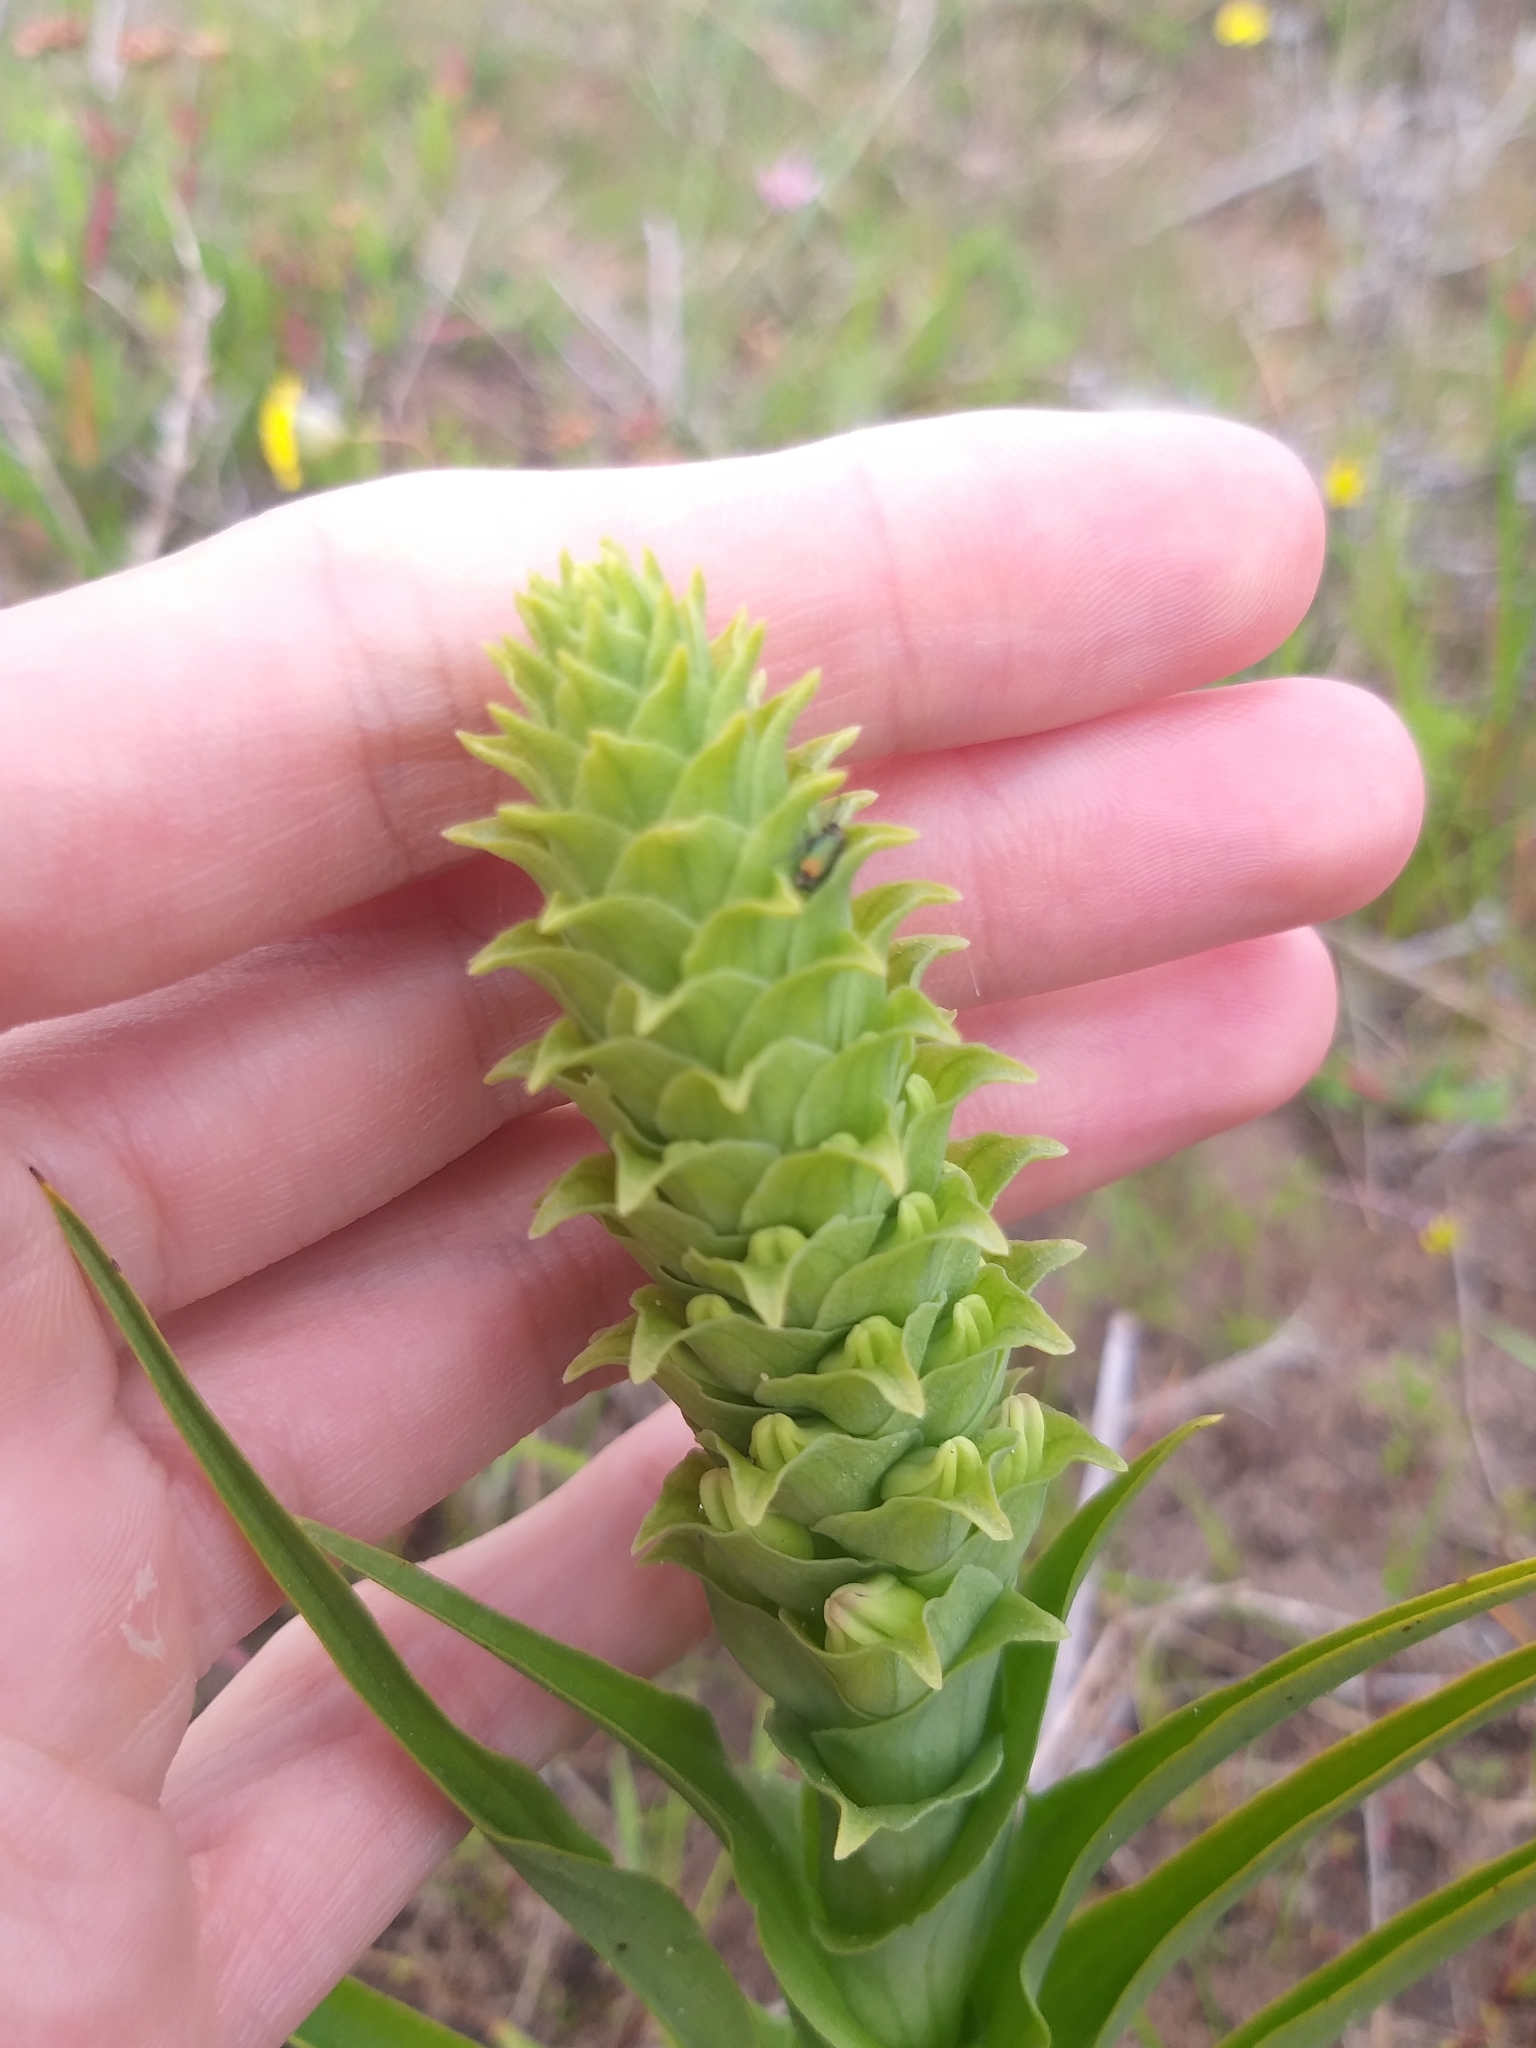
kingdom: Plantae
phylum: Tracheophyta
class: Liliopsida
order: Asparagales
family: Orchidaceae
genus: Corycium
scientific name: Corycium orobanchoides
